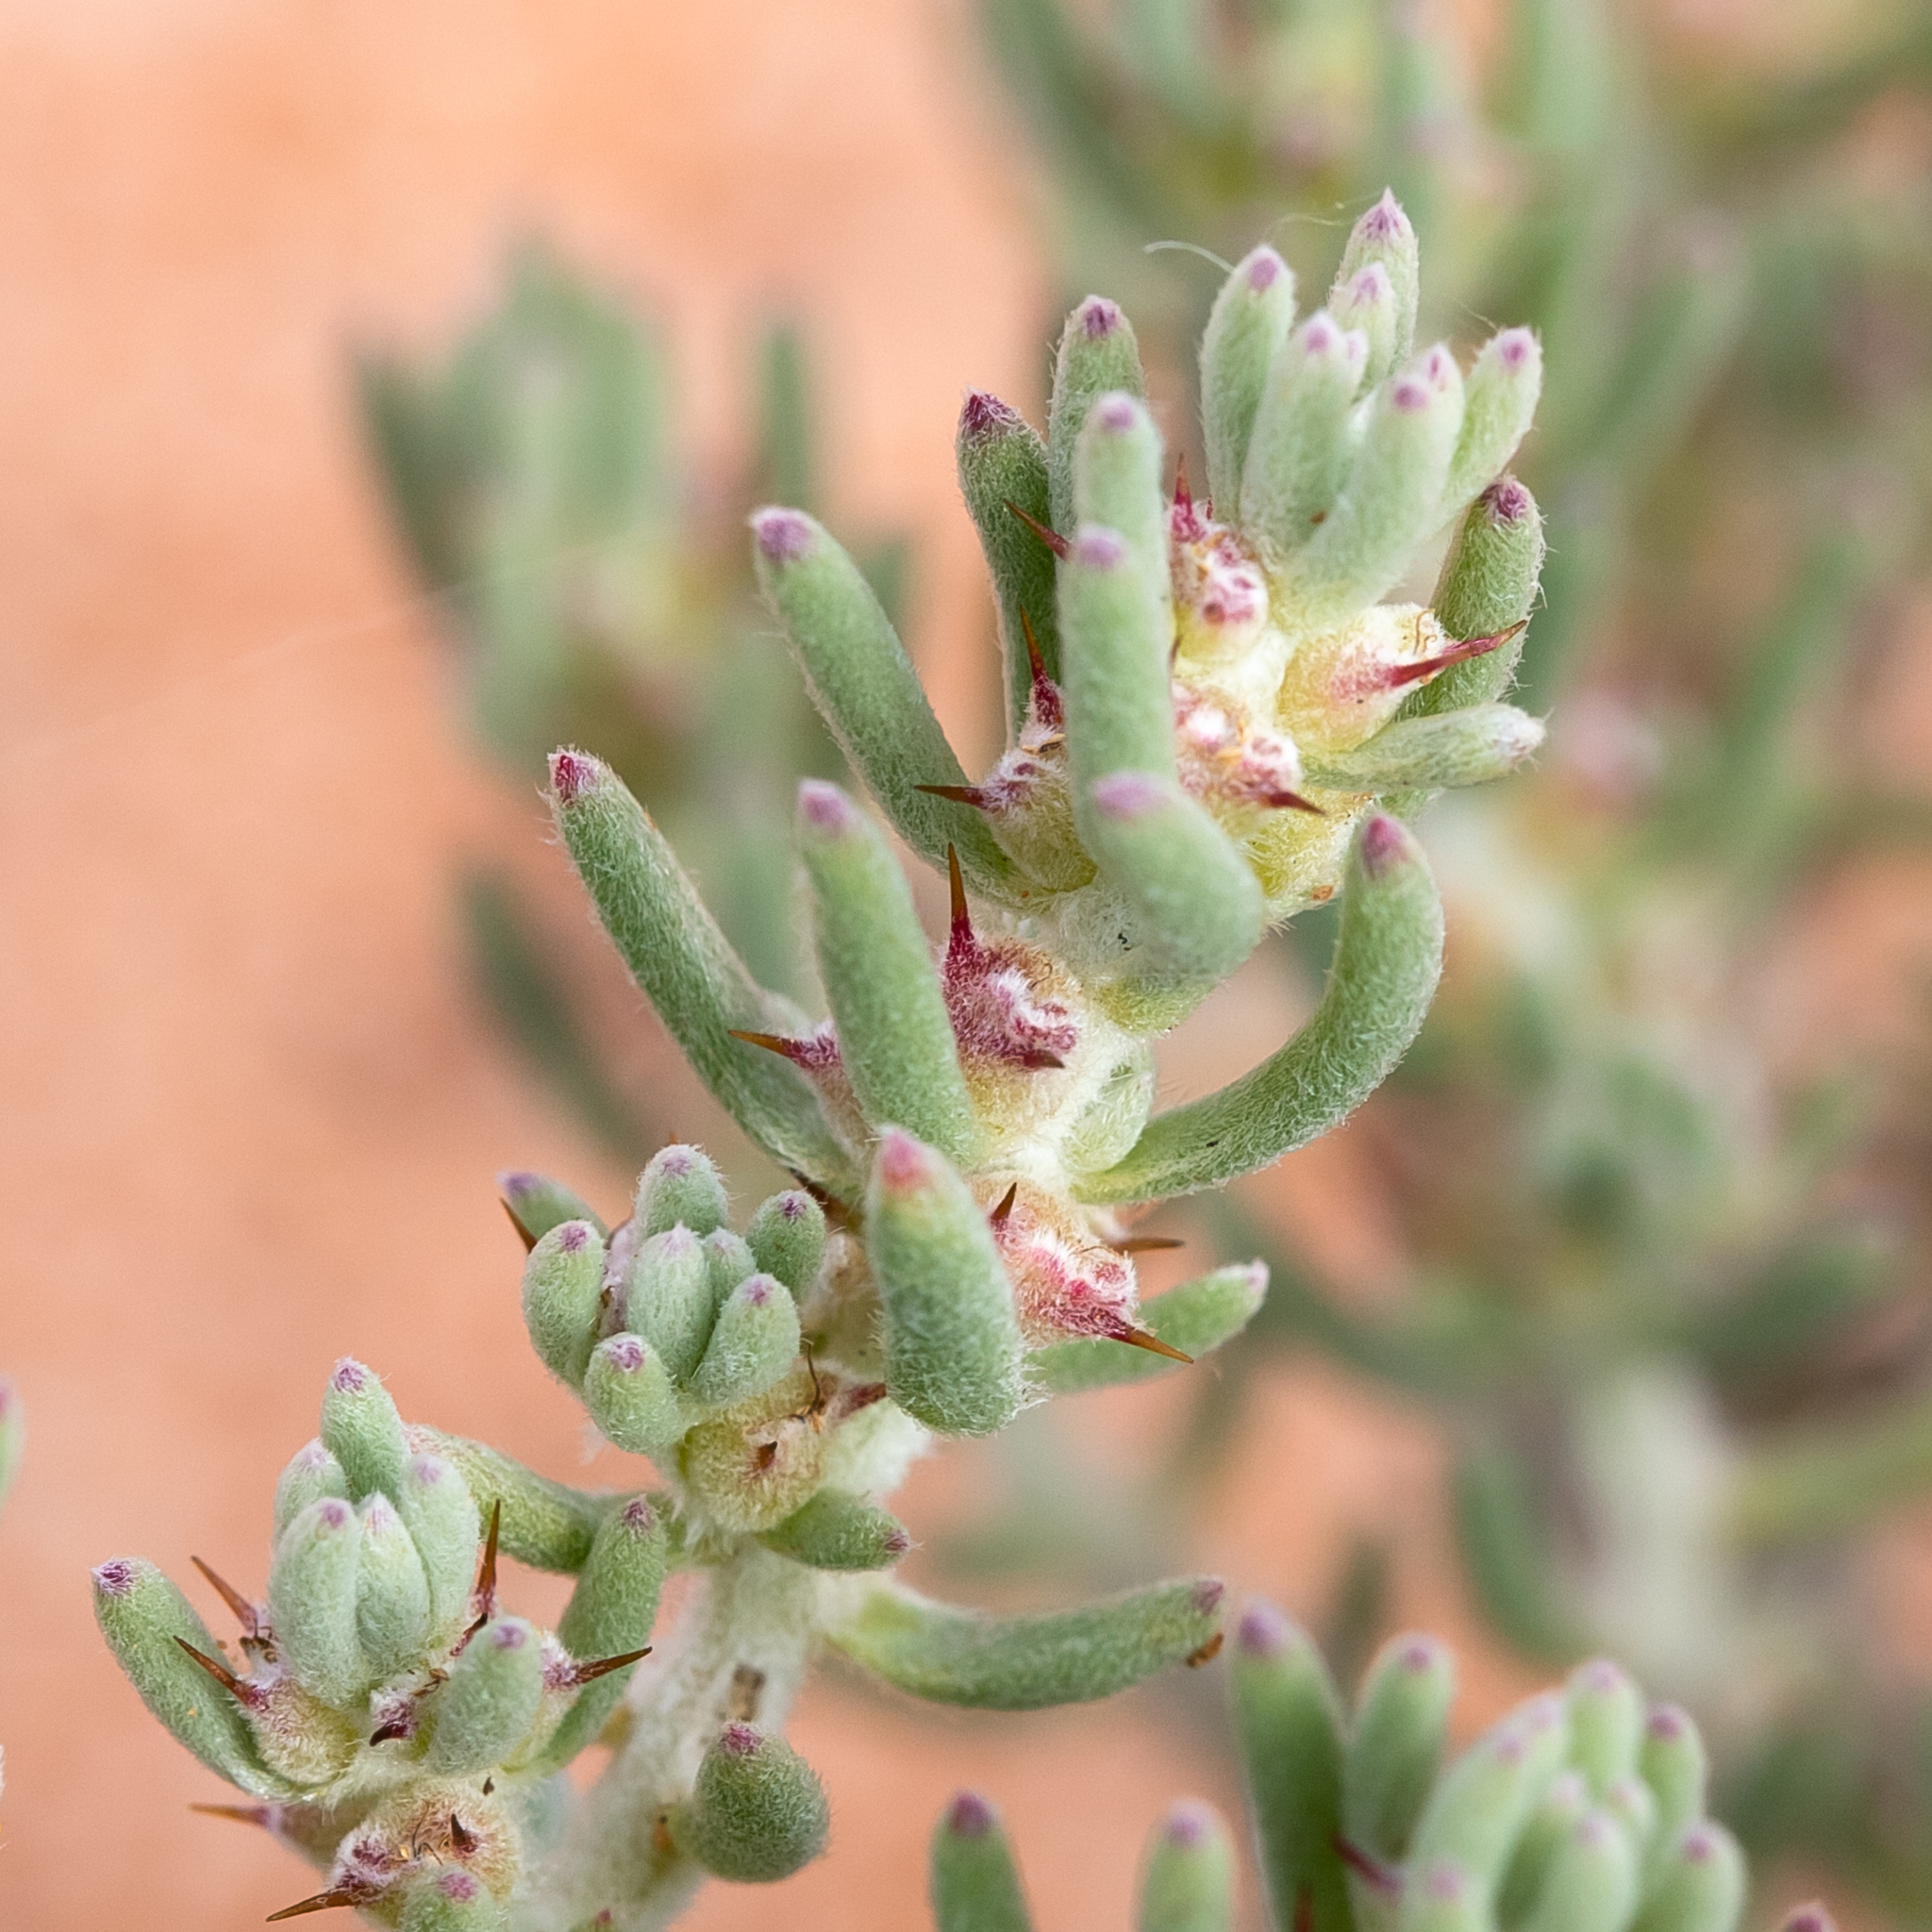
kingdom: Plantae
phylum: Tracheophyta
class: Magnoliopsida
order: Caryophyllales
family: Amaranthaceae
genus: Sclerolaena
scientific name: Sclerolaena diacantha
